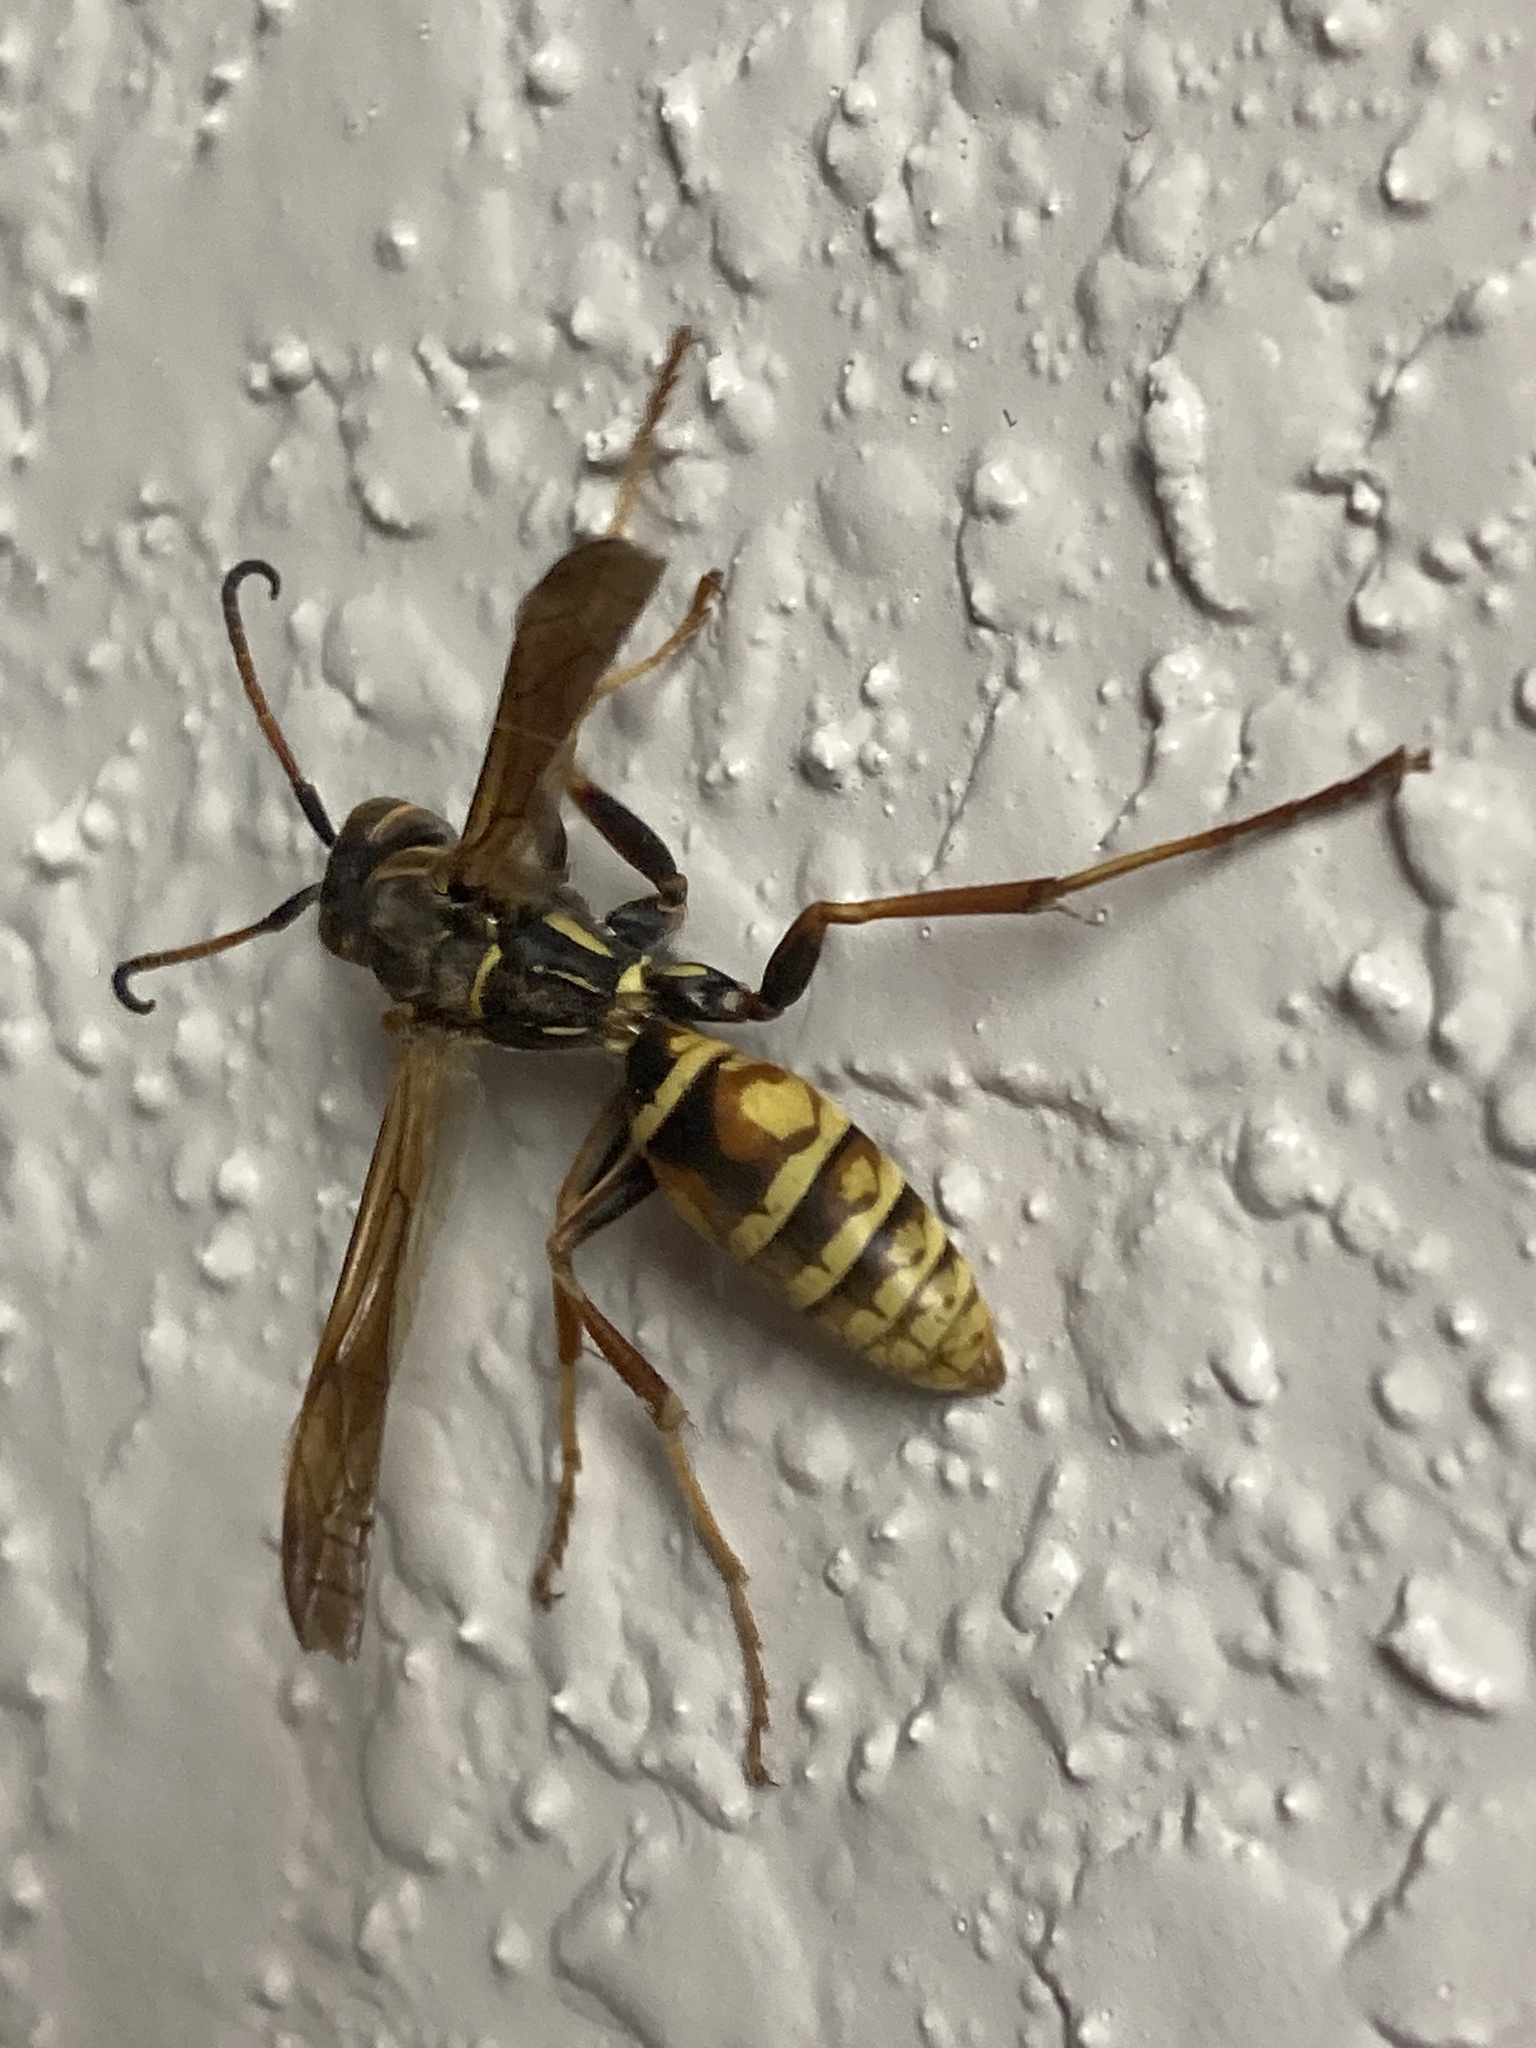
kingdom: Animalia
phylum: Arthropoda
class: Insecta
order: Hymenoptera
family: Eumenidae
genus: Polistes
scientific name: Polistes aurifer
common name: Paper wasp
